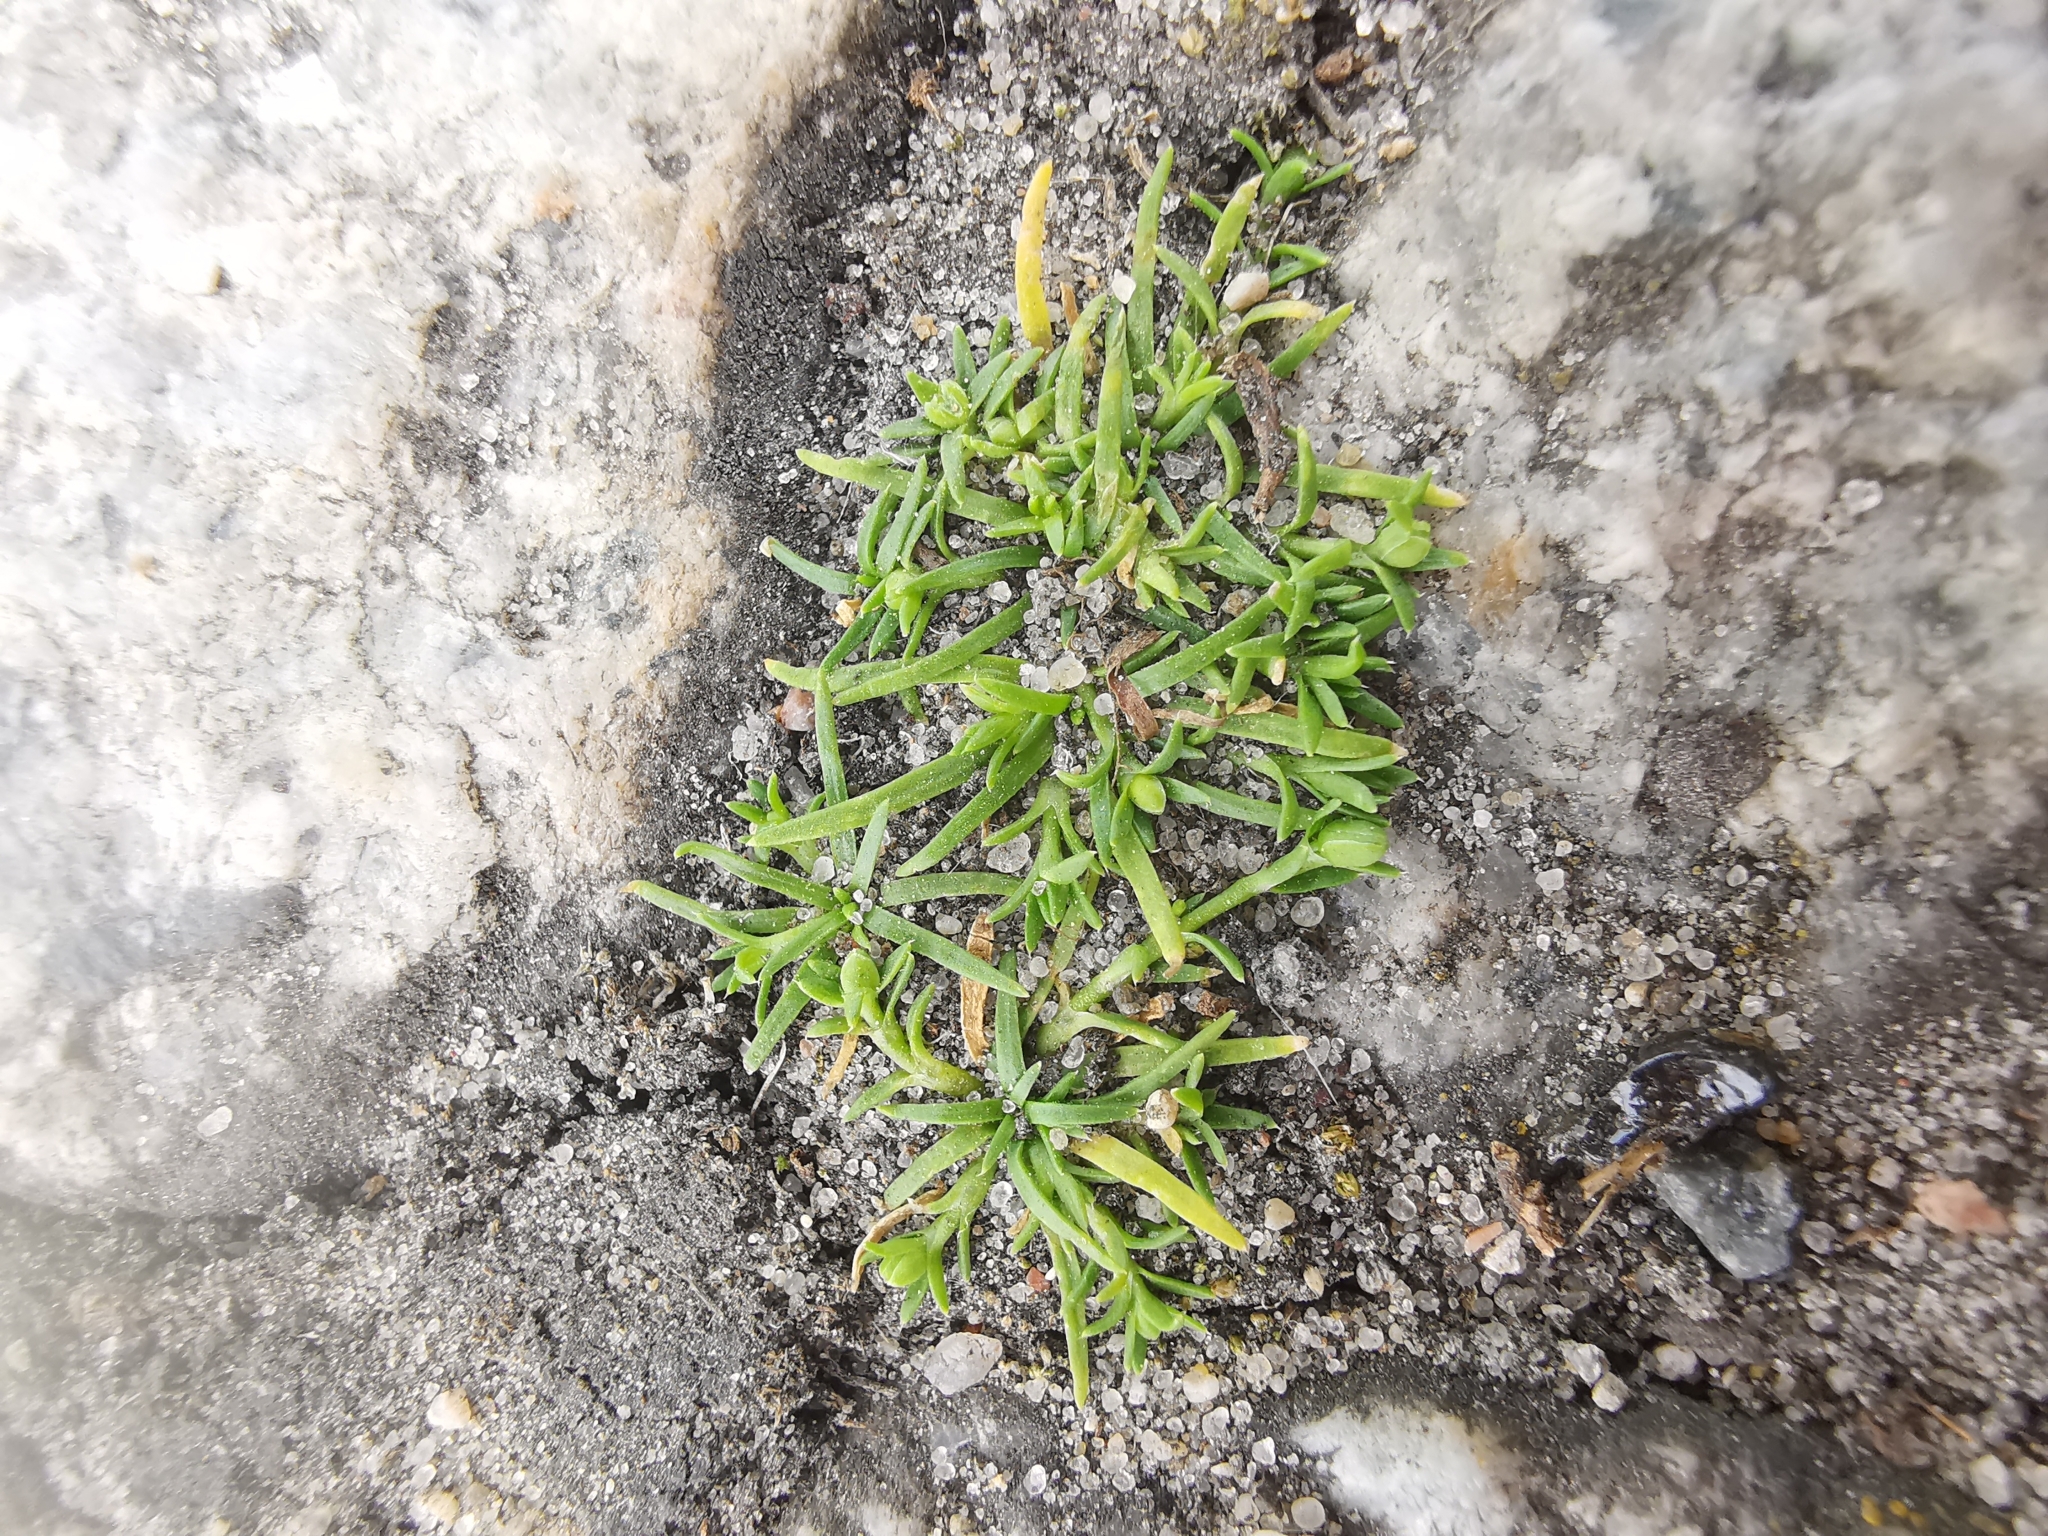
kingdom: Plantae
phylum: Tracheophyta
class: Magnoliopsida
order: Caryophyllales
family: Caryophyllaceae
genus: Sagina
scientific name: Sagina procumbens
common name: Procumbent pearlwort
